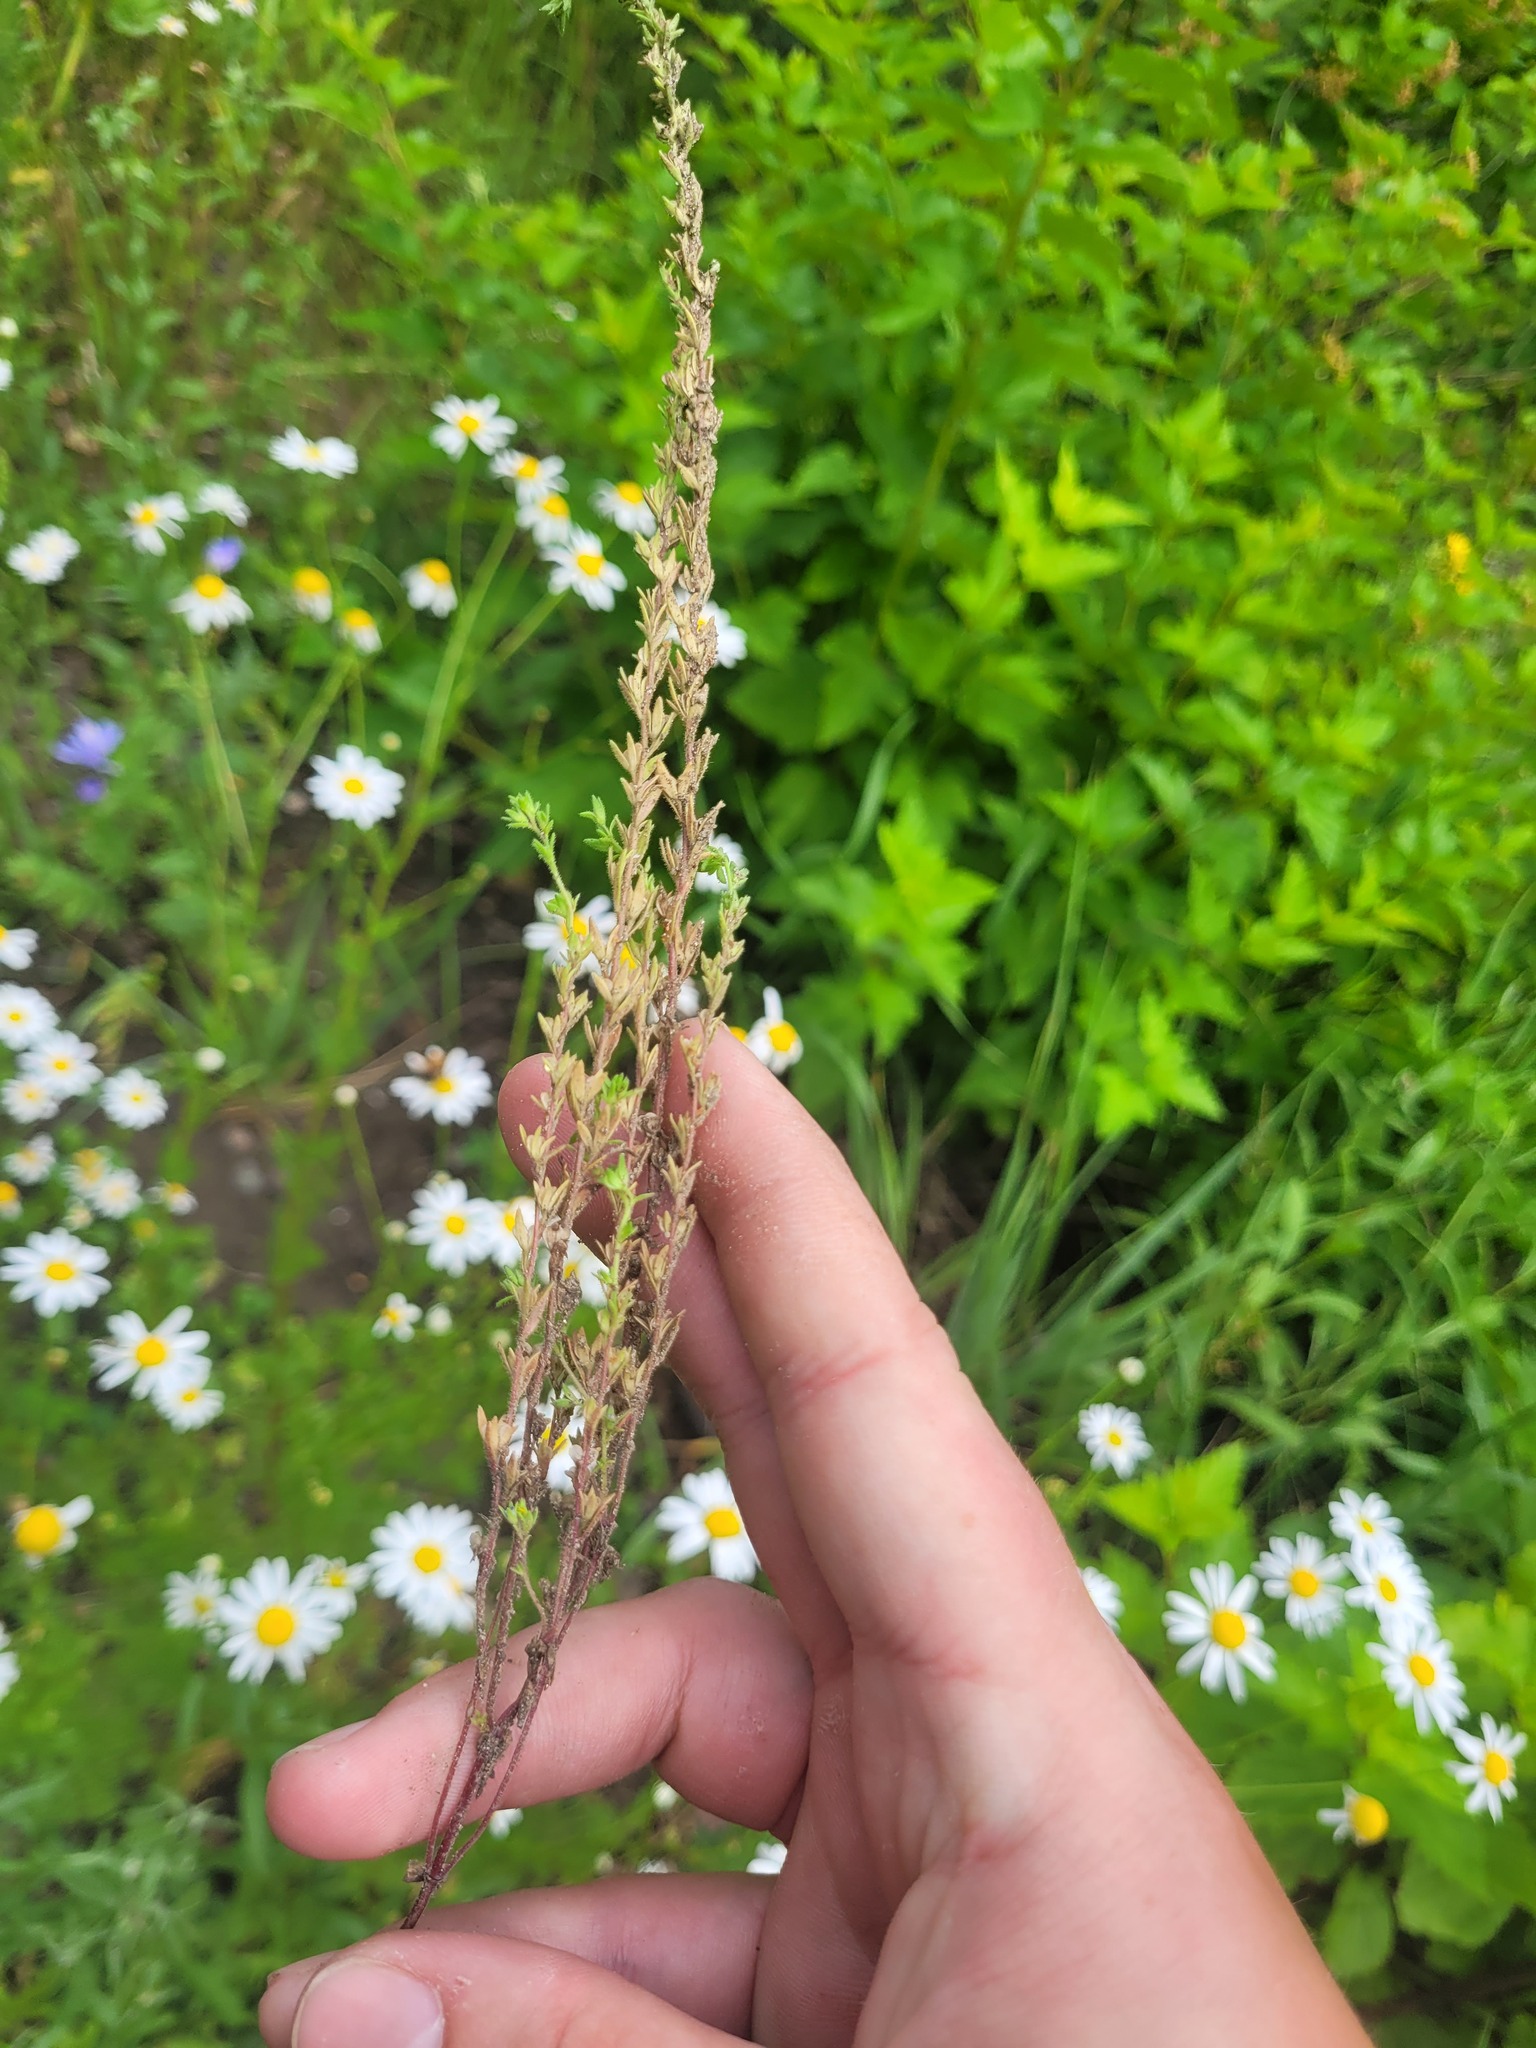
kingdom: Plantae
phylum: Tracheophyta
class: Magnoliopsida
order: Lamiales
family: Plantaginaceae
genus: Veronica
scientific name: Veronica arvensis
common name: Corn speedwell
